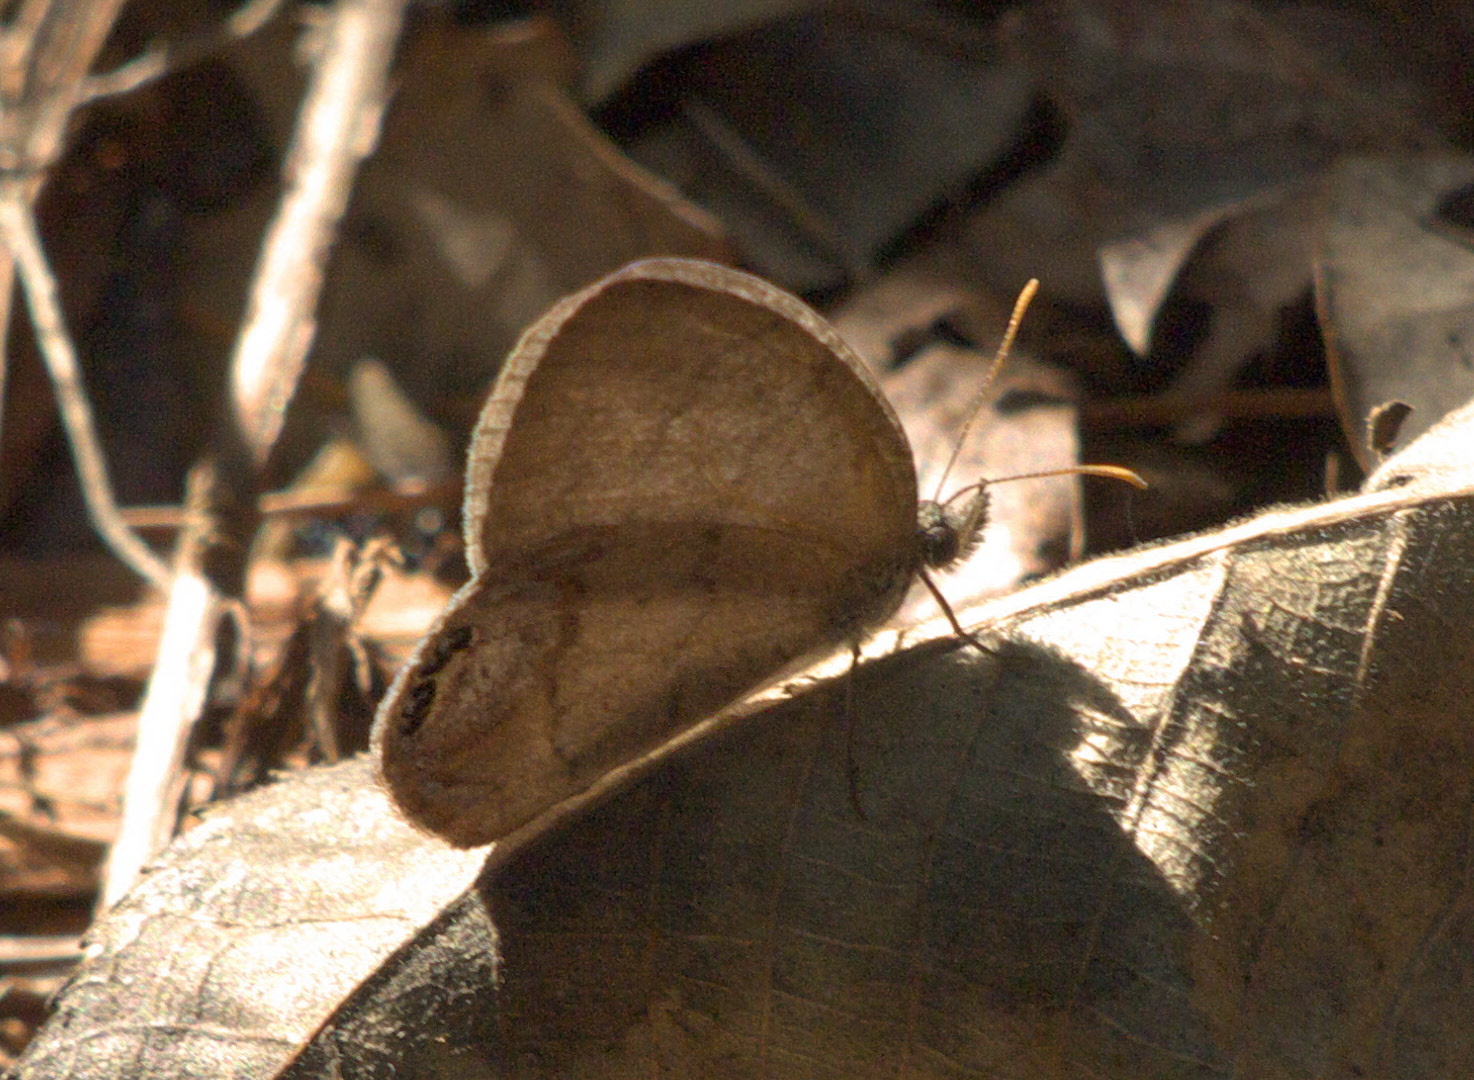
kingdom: Animalia
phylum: Arthropoda
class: Insecta
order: Lepidoptera
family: Nymphalidae
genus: Euptychia
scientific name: Euptychia cornelius
